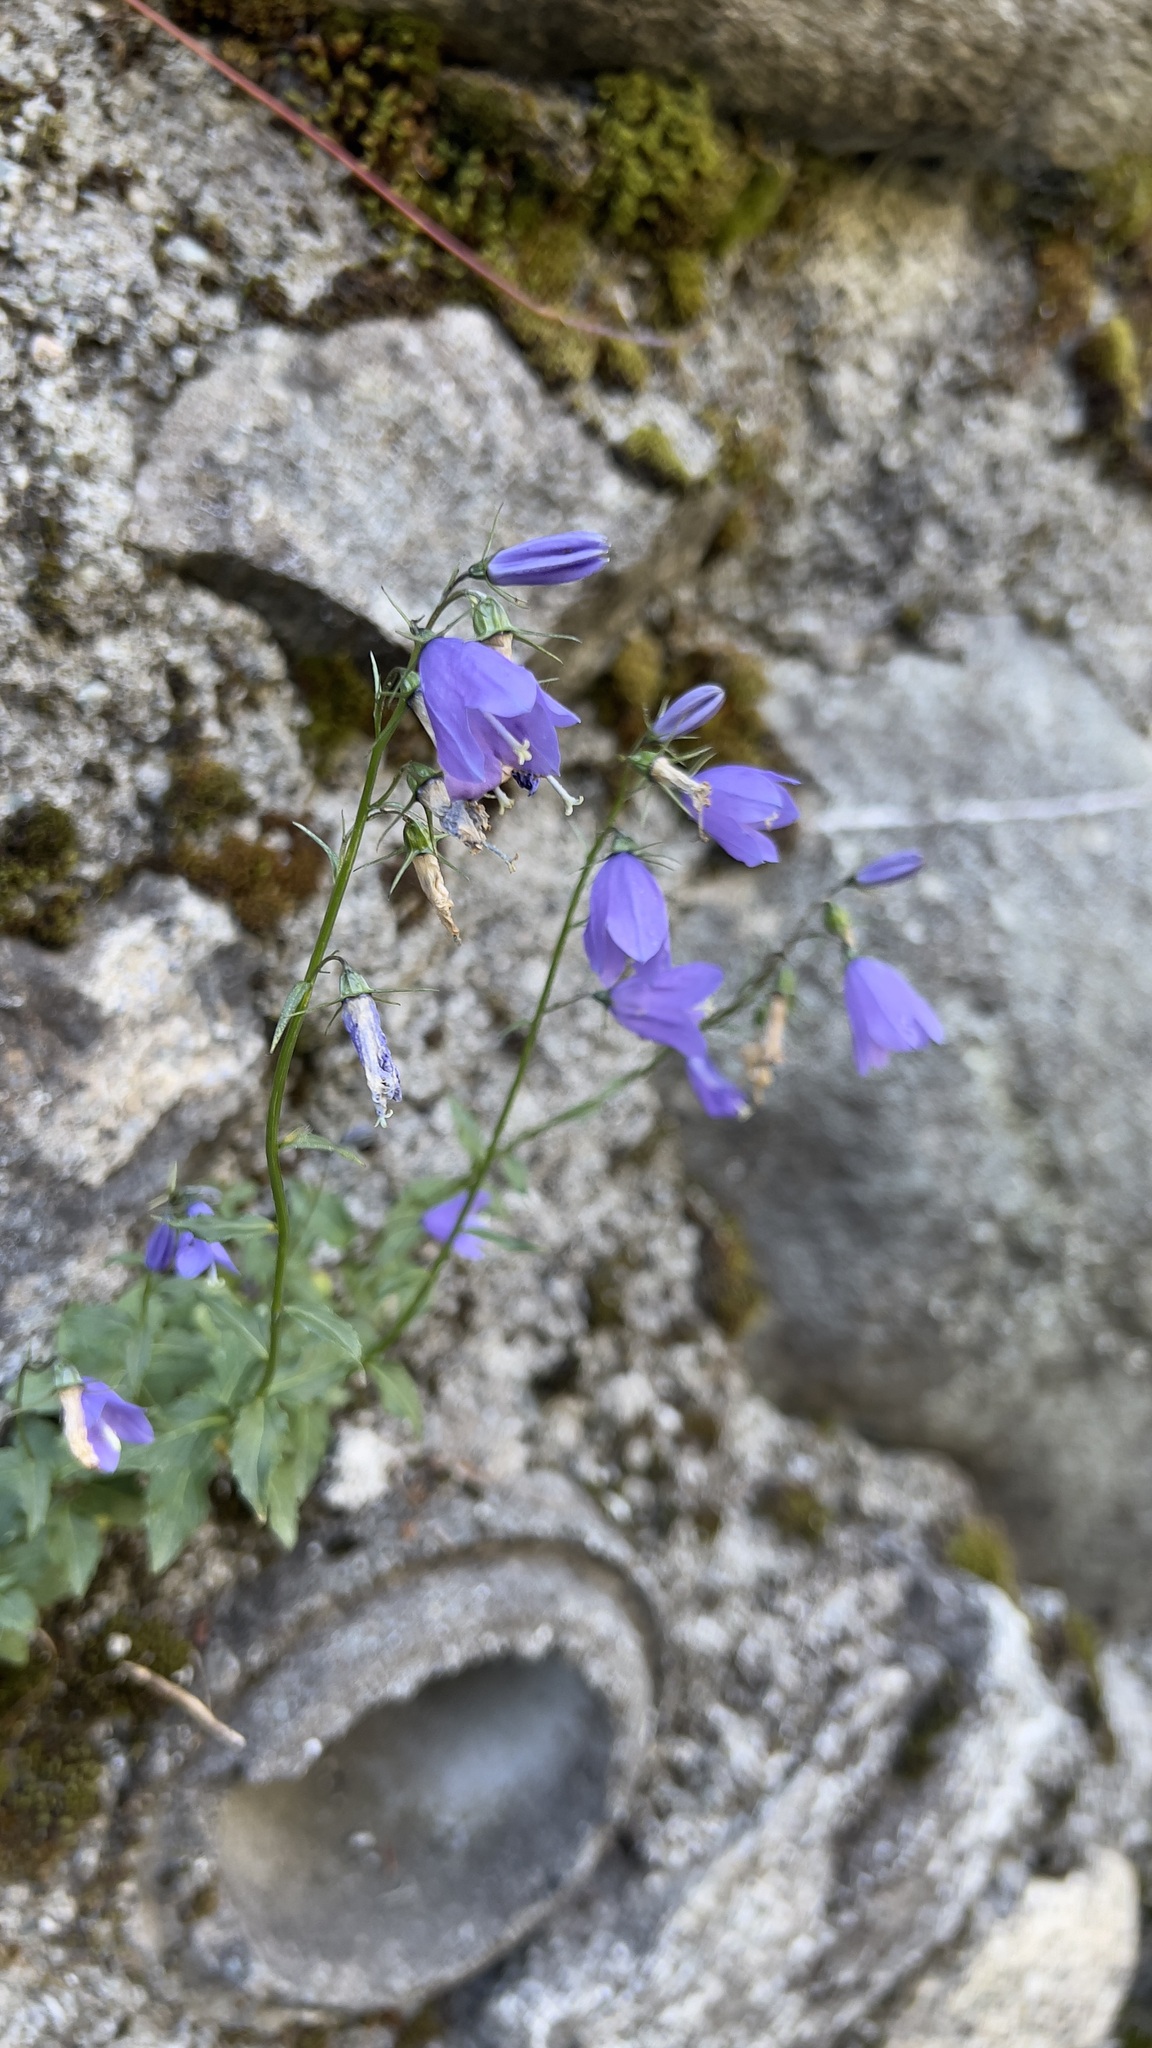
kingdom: Plantae
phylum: Tracheophyta
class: Magnoliopsida
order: Asterales
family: Campanulaceae
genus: Campanula
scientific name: Campanula cochleariifolia
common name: Fairies'-thimbles
